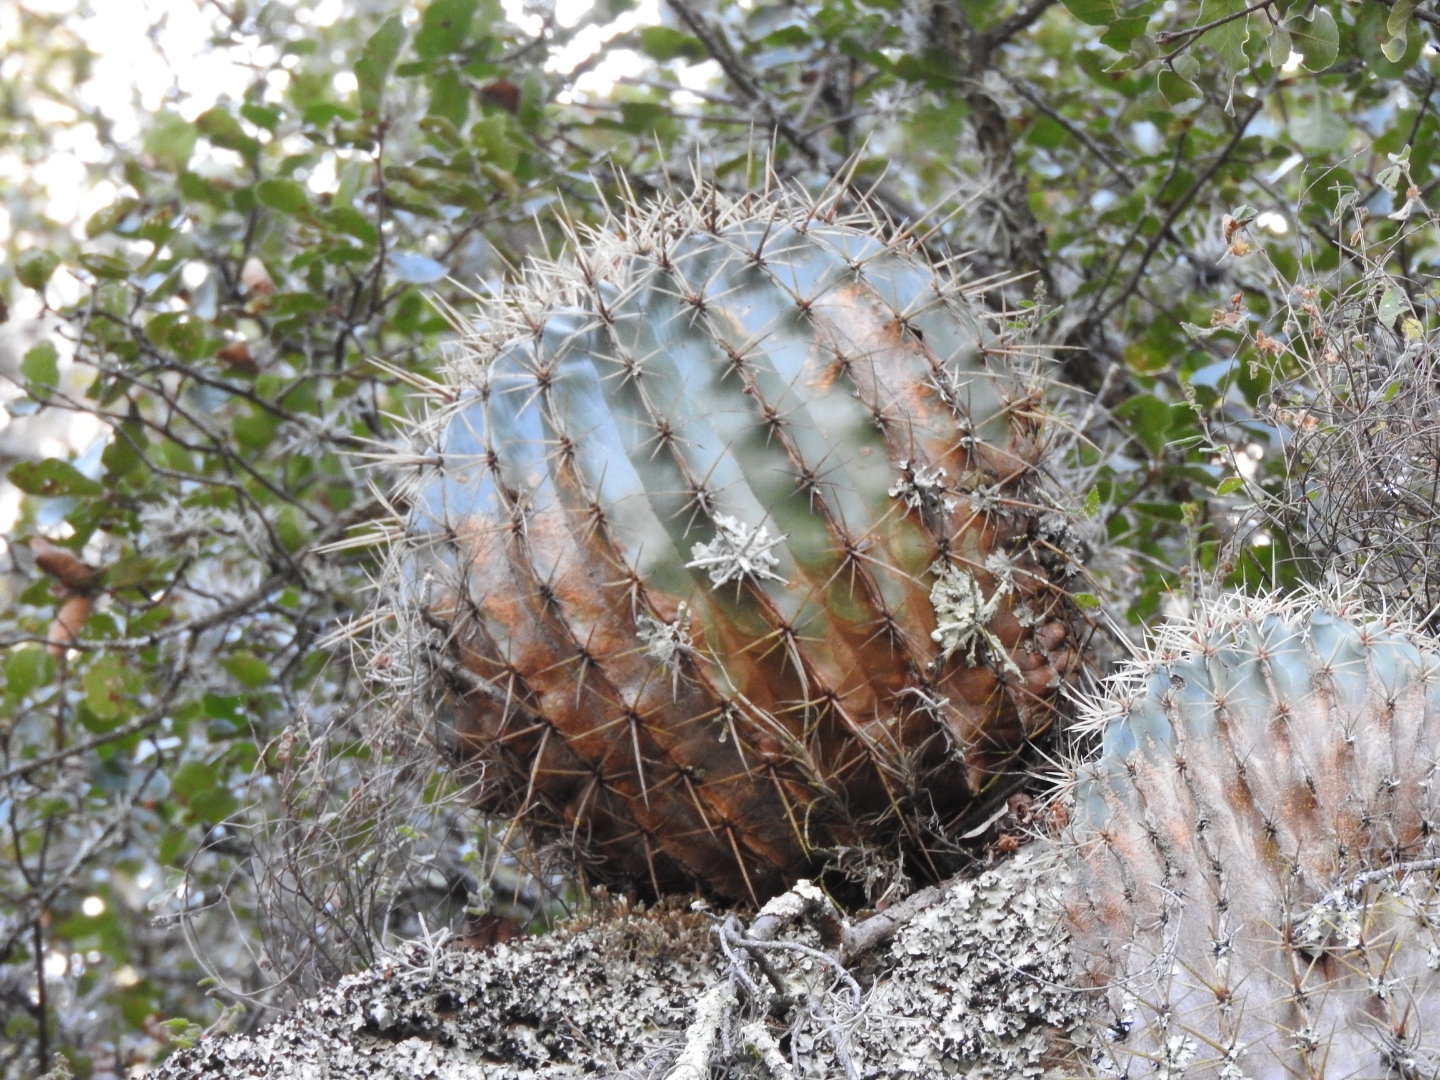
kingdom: Plantae
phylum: Tracheophyta
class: Magnoliopsida
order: Caryophyllales
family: Cactaceae
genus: Bisnaga
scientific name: Bisnaga histrix
